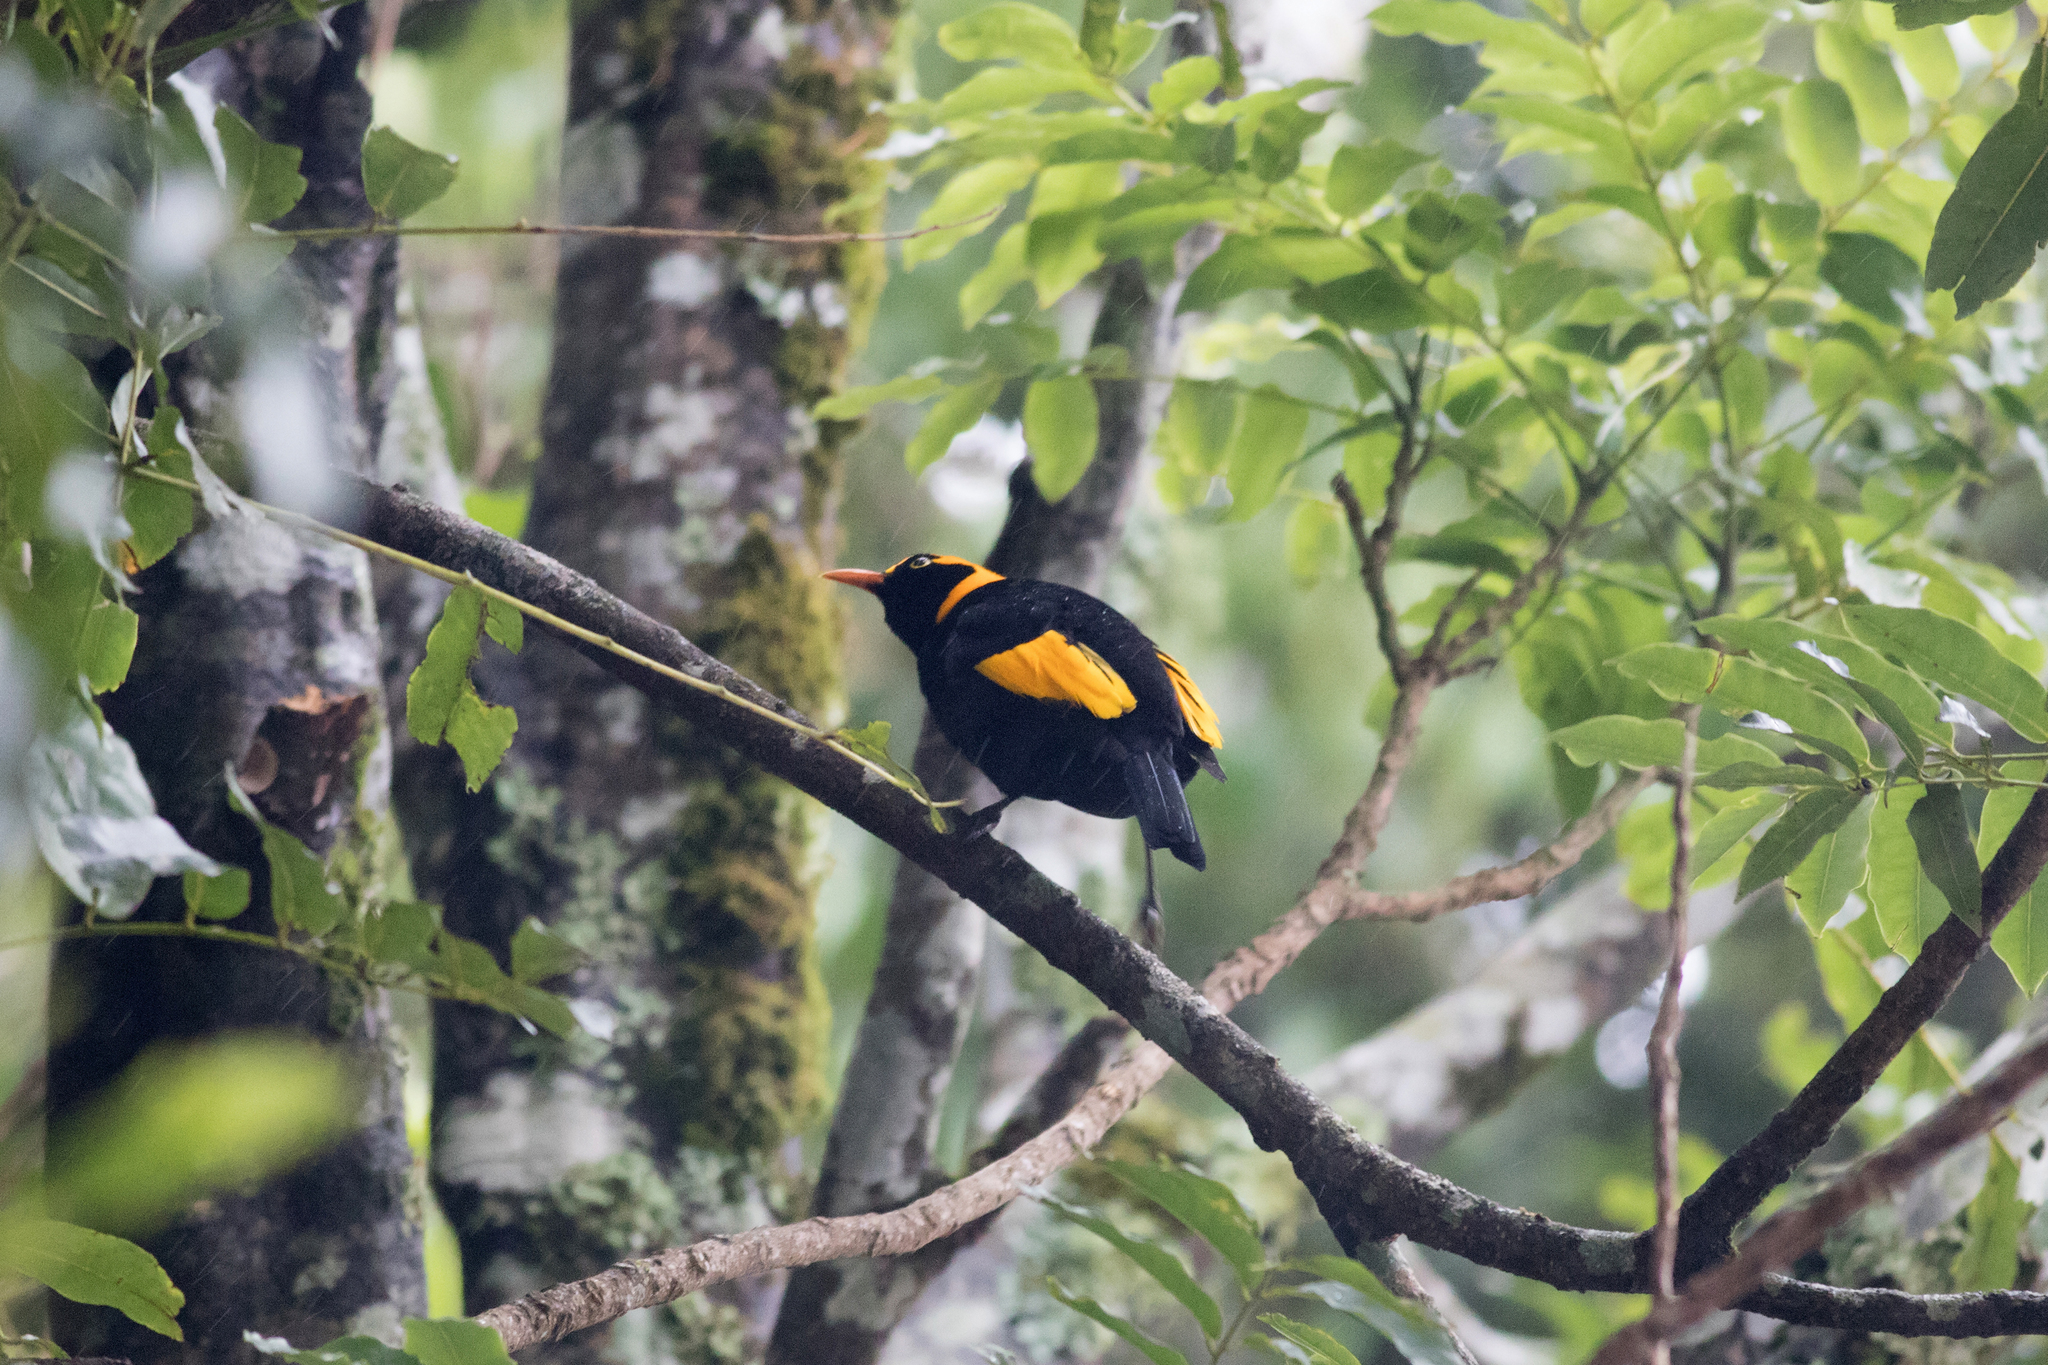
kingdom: Animalia
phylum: Chordata
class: Aves
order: Passeriformes
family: Ptilonorhynchidae
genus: Sericulus
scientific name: Sericulus chrysocephalus
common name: Regent bowerbird
